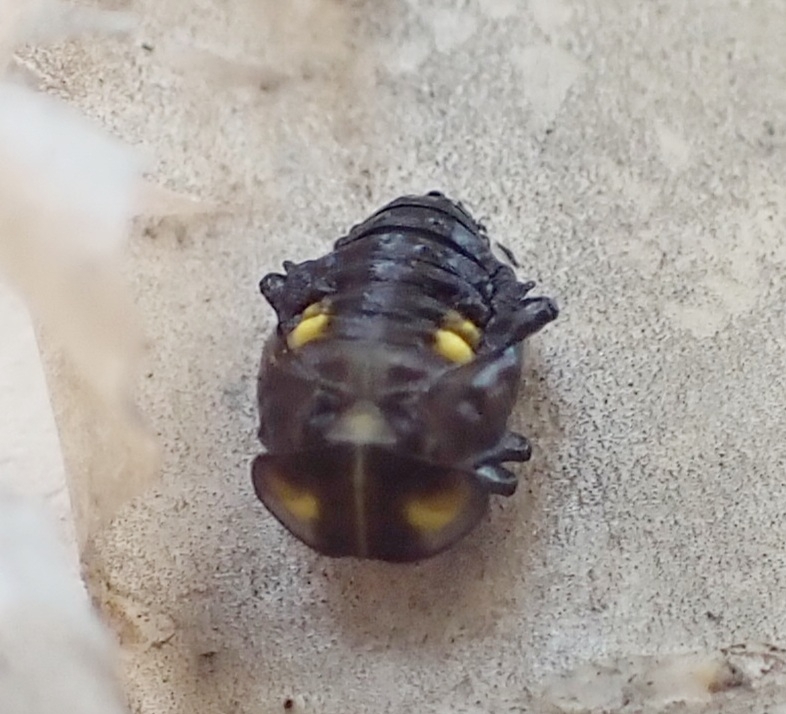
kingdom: Animalia
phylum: Arthropoda
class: Insecta
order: Coleoptera
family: Coccinellidae
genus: Halyzia
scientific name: Halyzia sedecimguttata
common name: Orange ladybird
